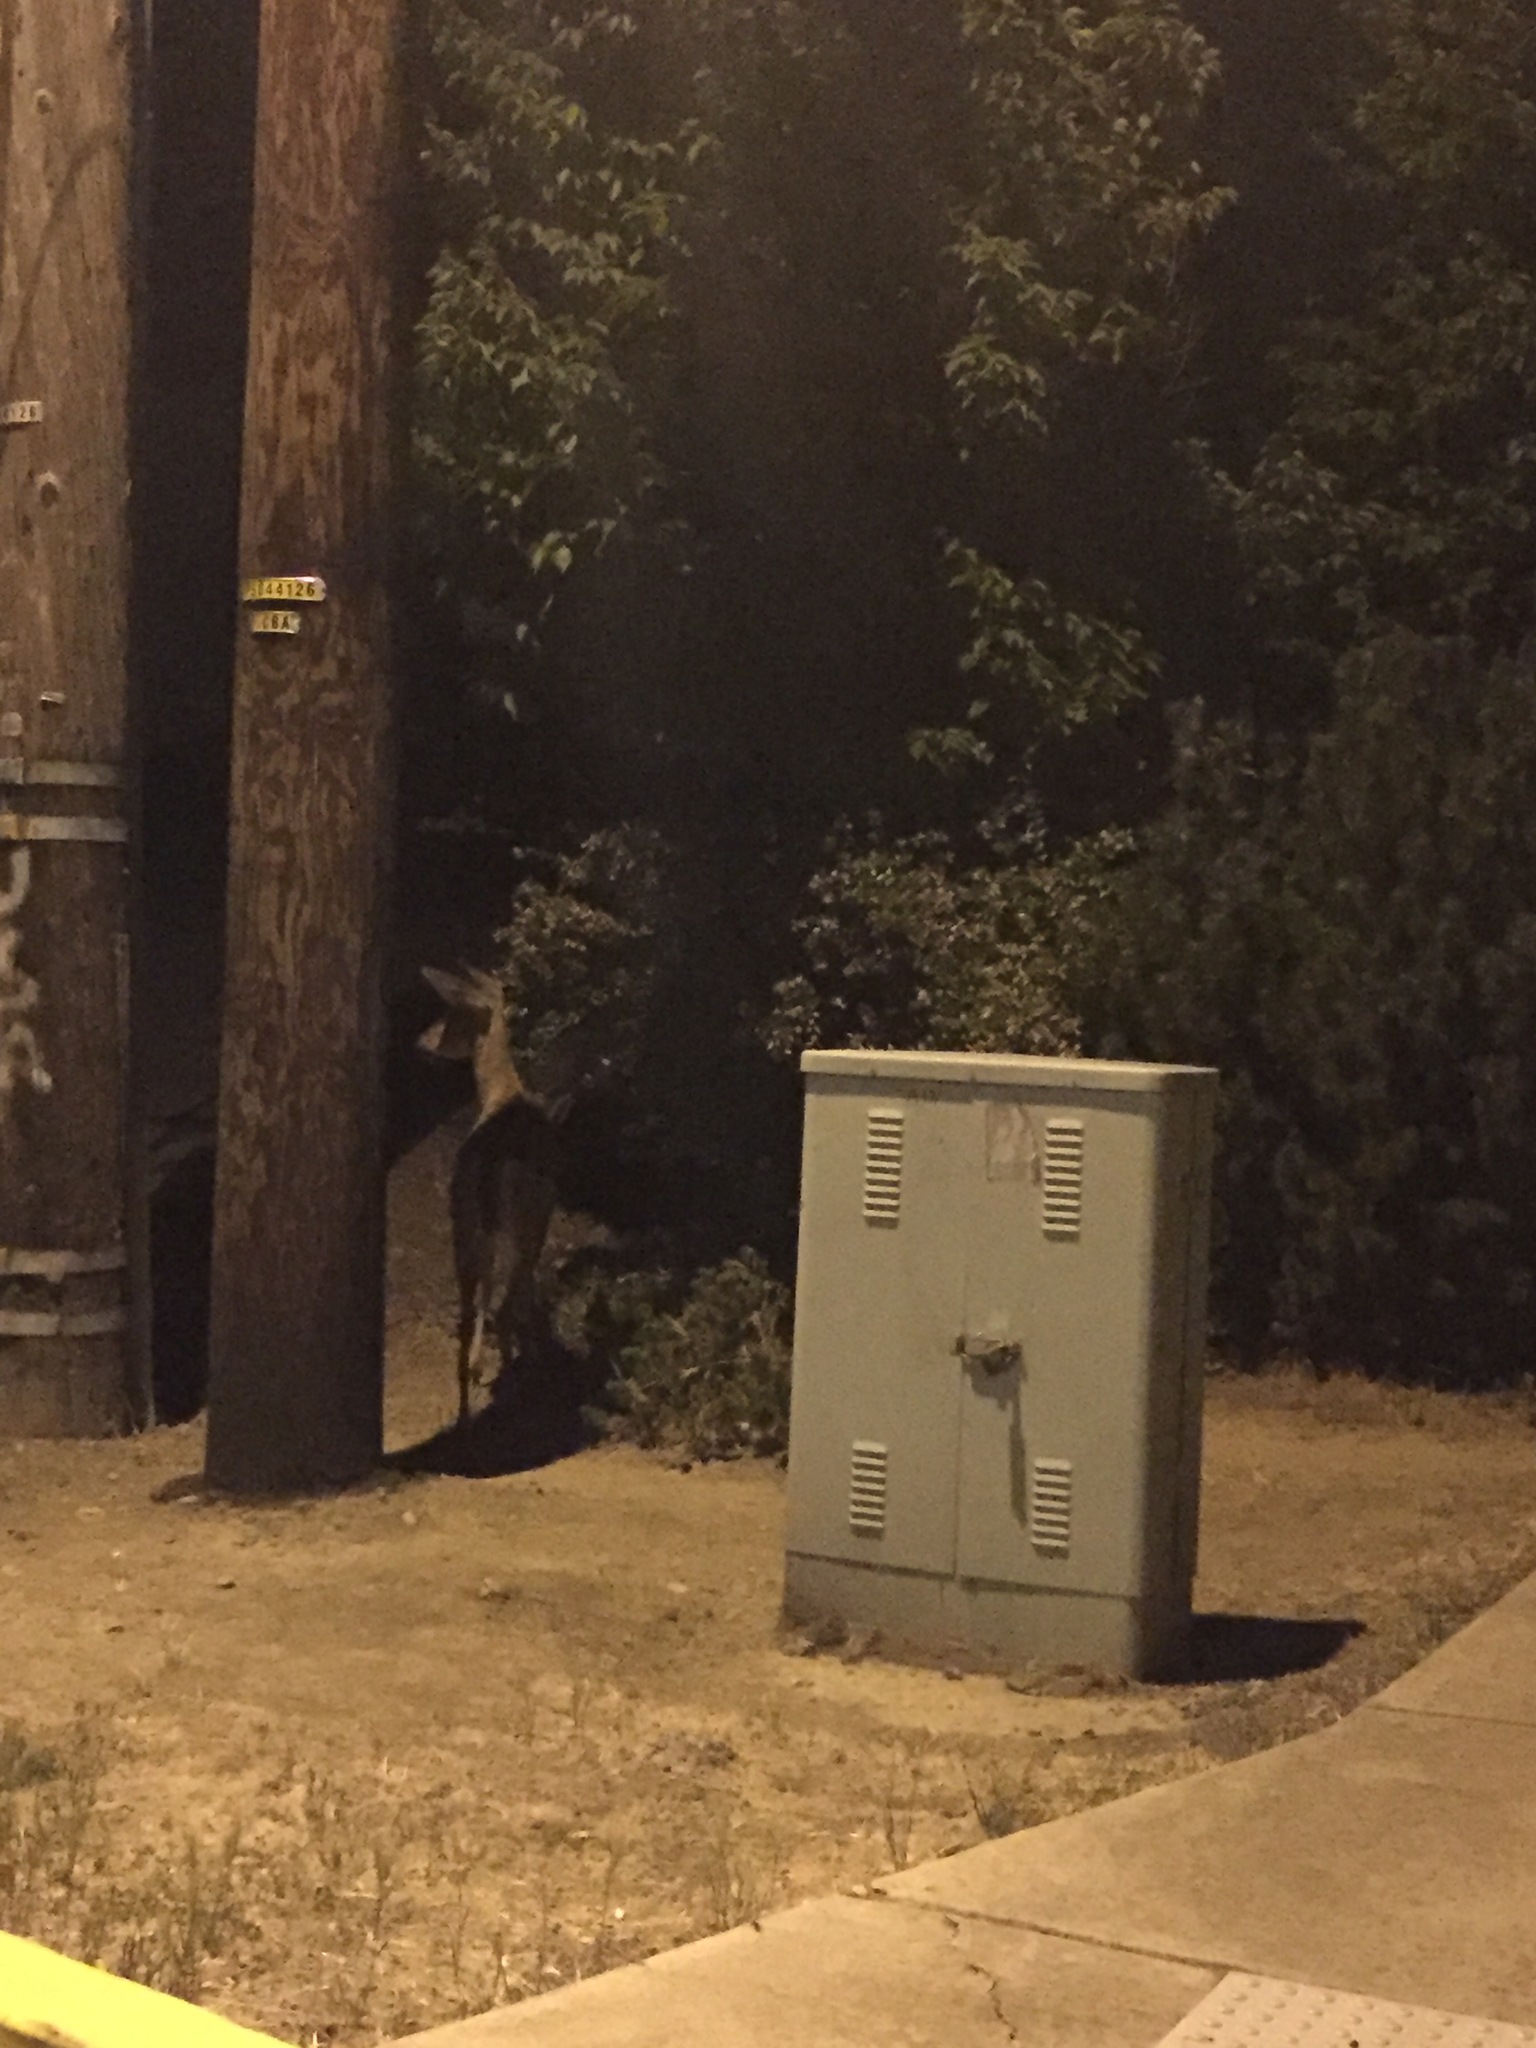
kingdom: Animalia
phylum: Chordata
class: Mammalia
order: Artiodactyla
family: Cervidae
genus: Odocoileus
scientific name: Odocoileus hemionus
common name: Mule deer
